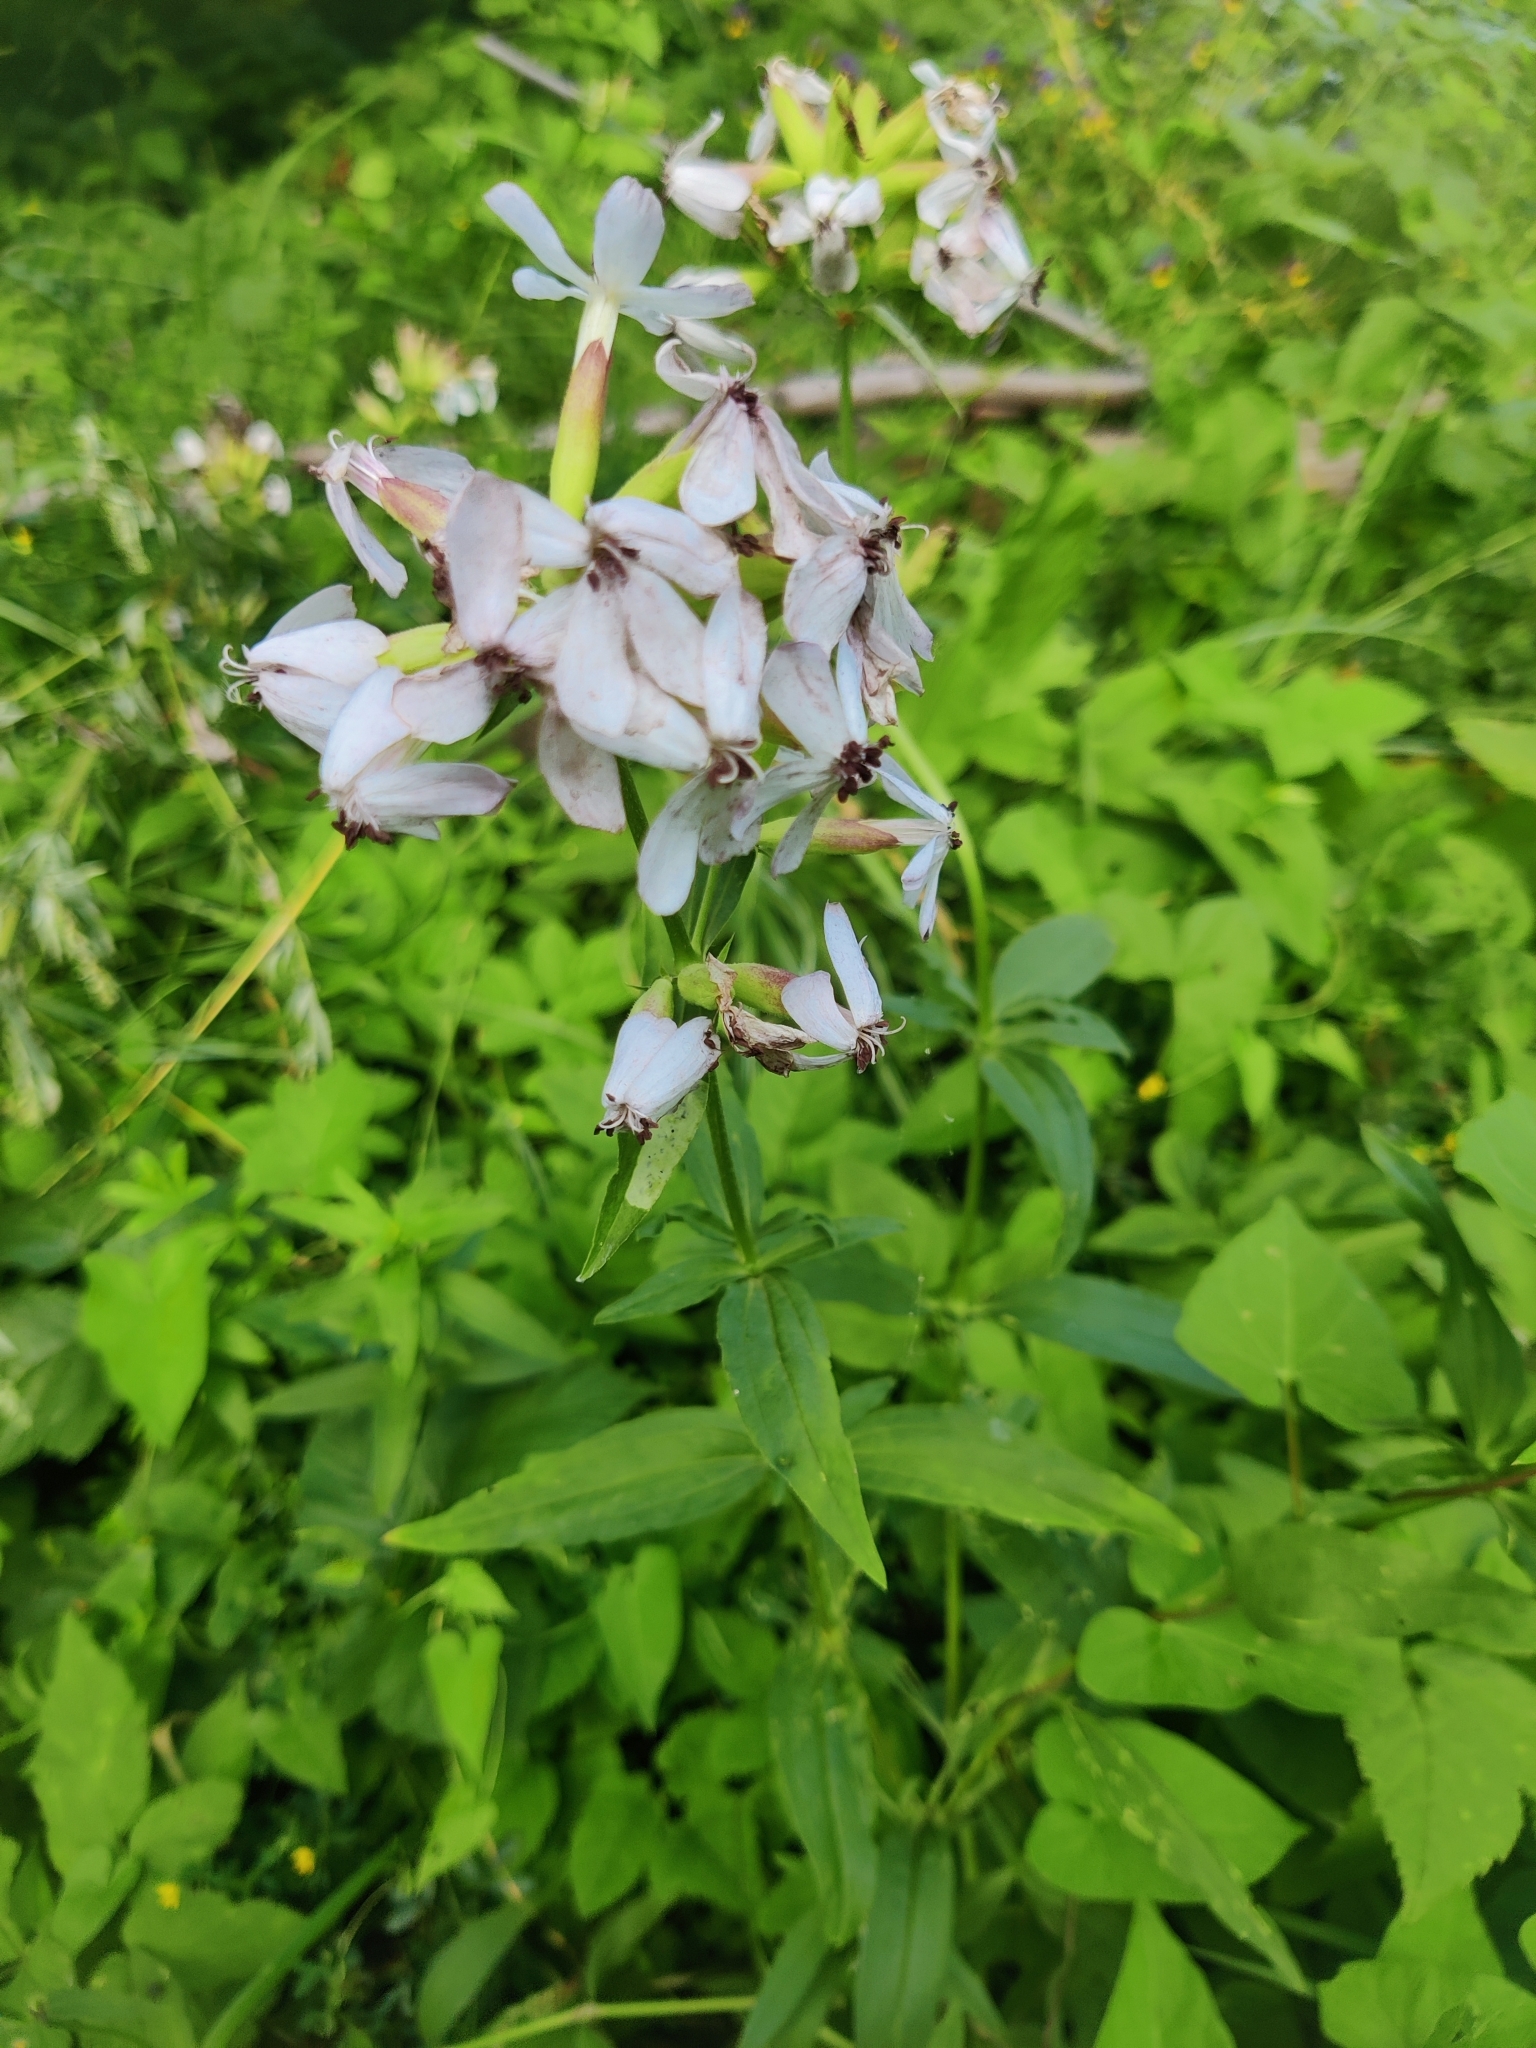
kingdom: Plantae
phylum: Tracheophyta
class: Magnoliopsida
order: Caryophyllales
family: Caryophyllaceae
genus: Saponaria
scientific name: Saponaria officinalis
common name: Soapwort
